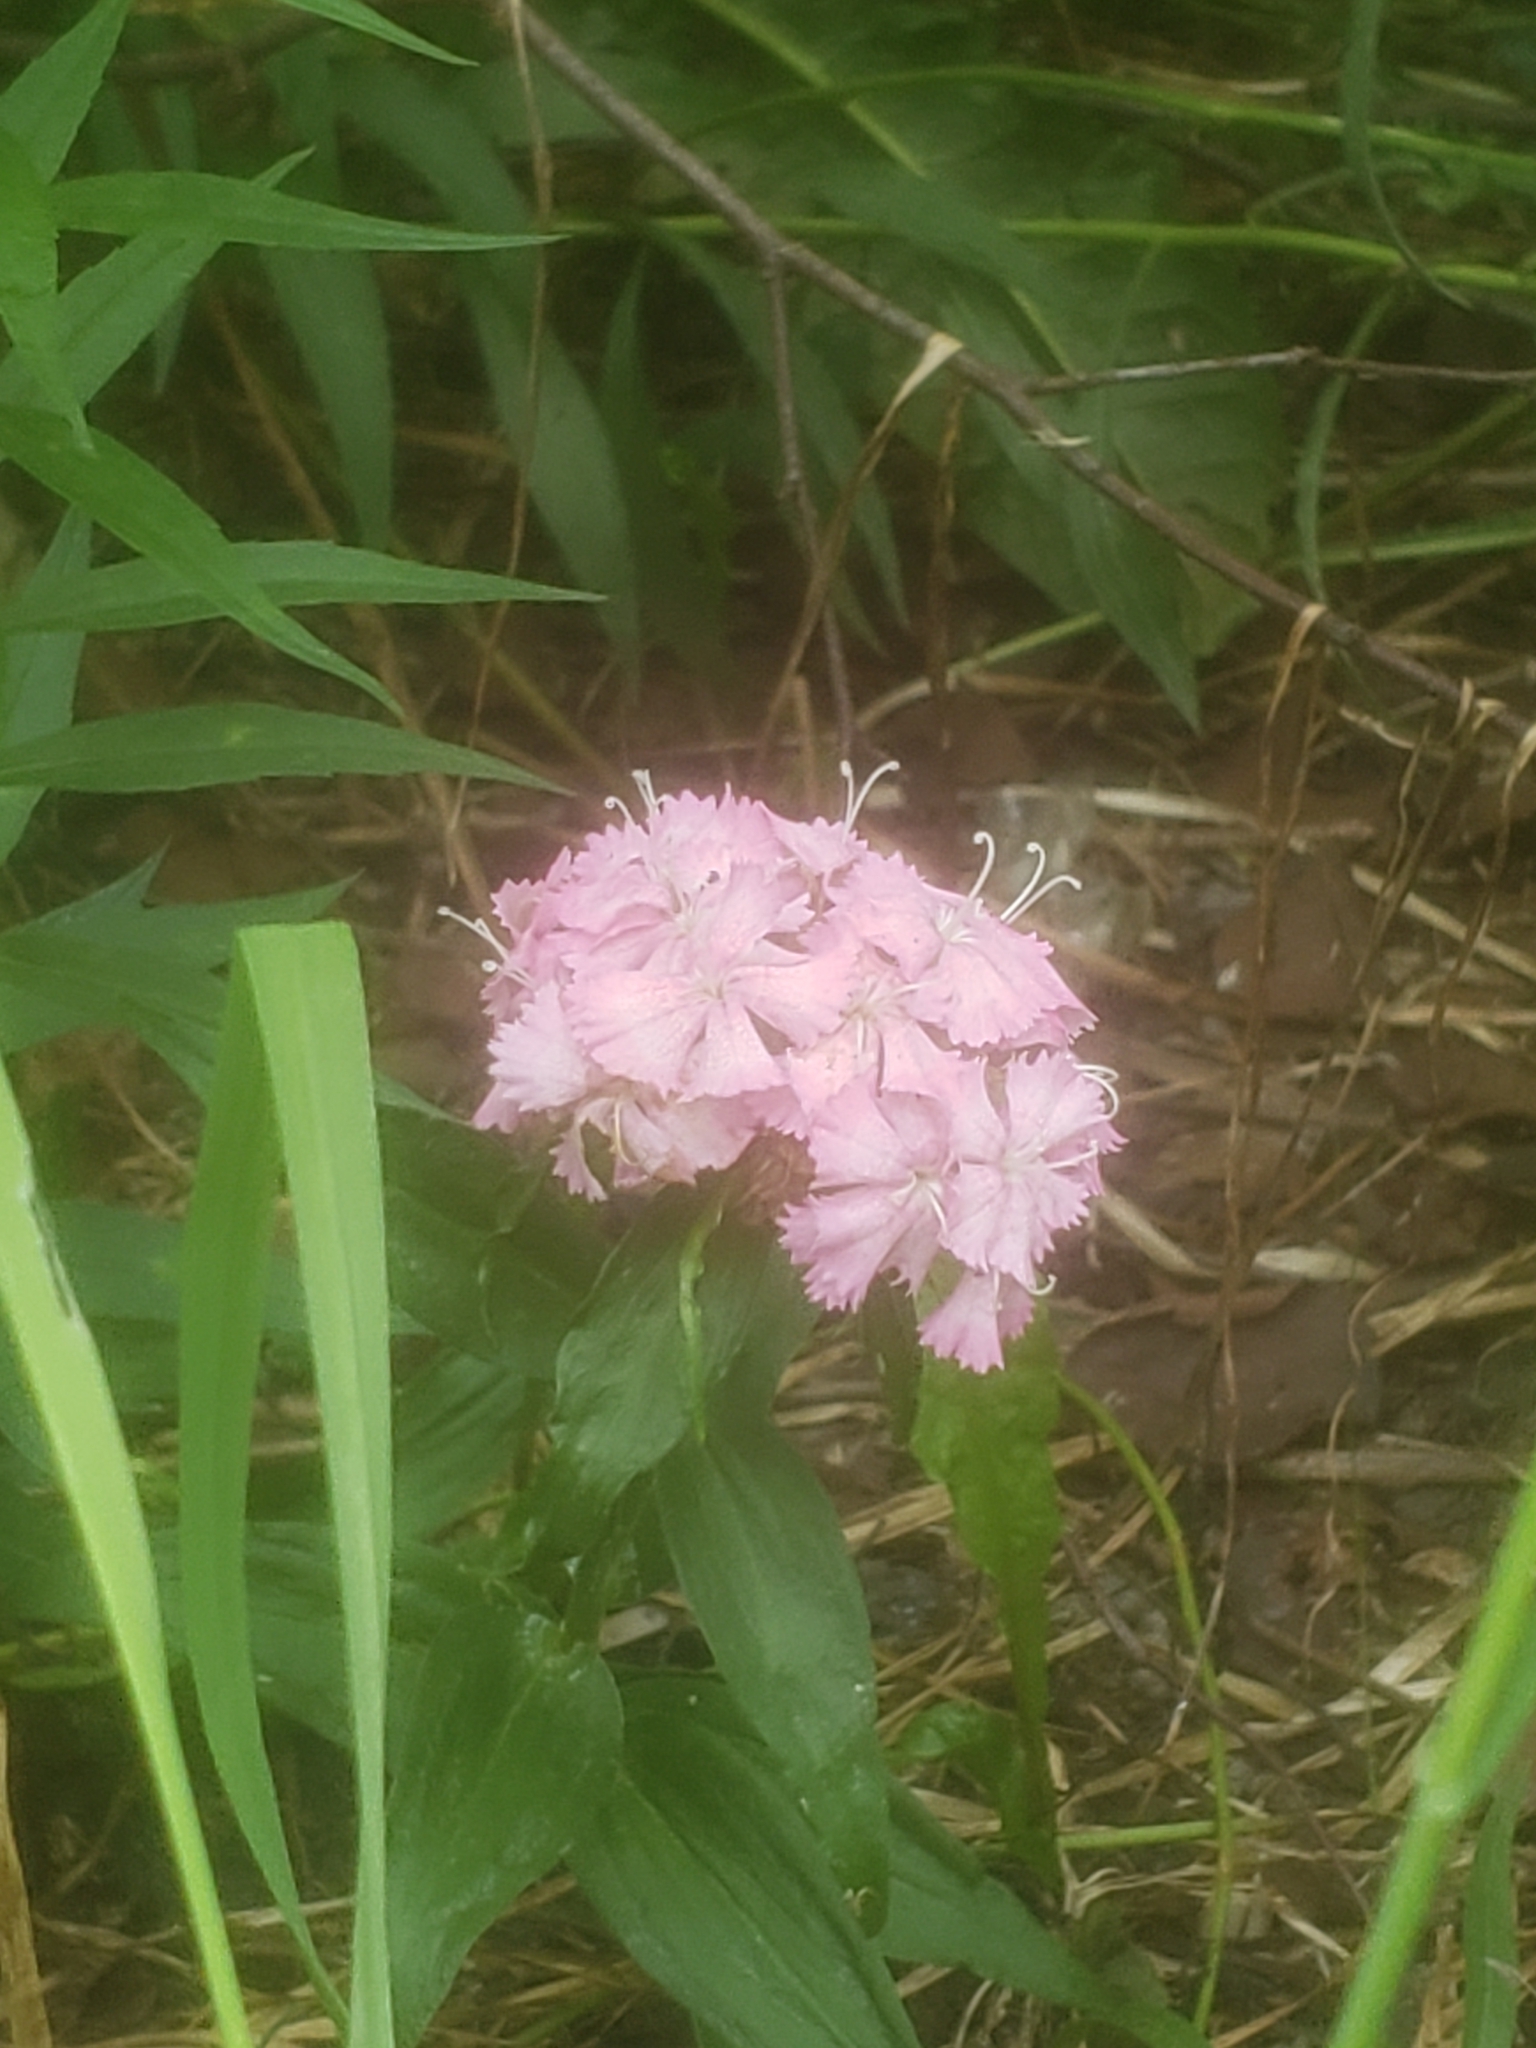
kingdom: Plantae
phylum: Tracheophyta
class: Magnoliopsida
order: Caryophyllales
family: Caryophyllaceae
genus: Dianthus
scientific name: Dianthus barbatus
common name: Sweet-william
